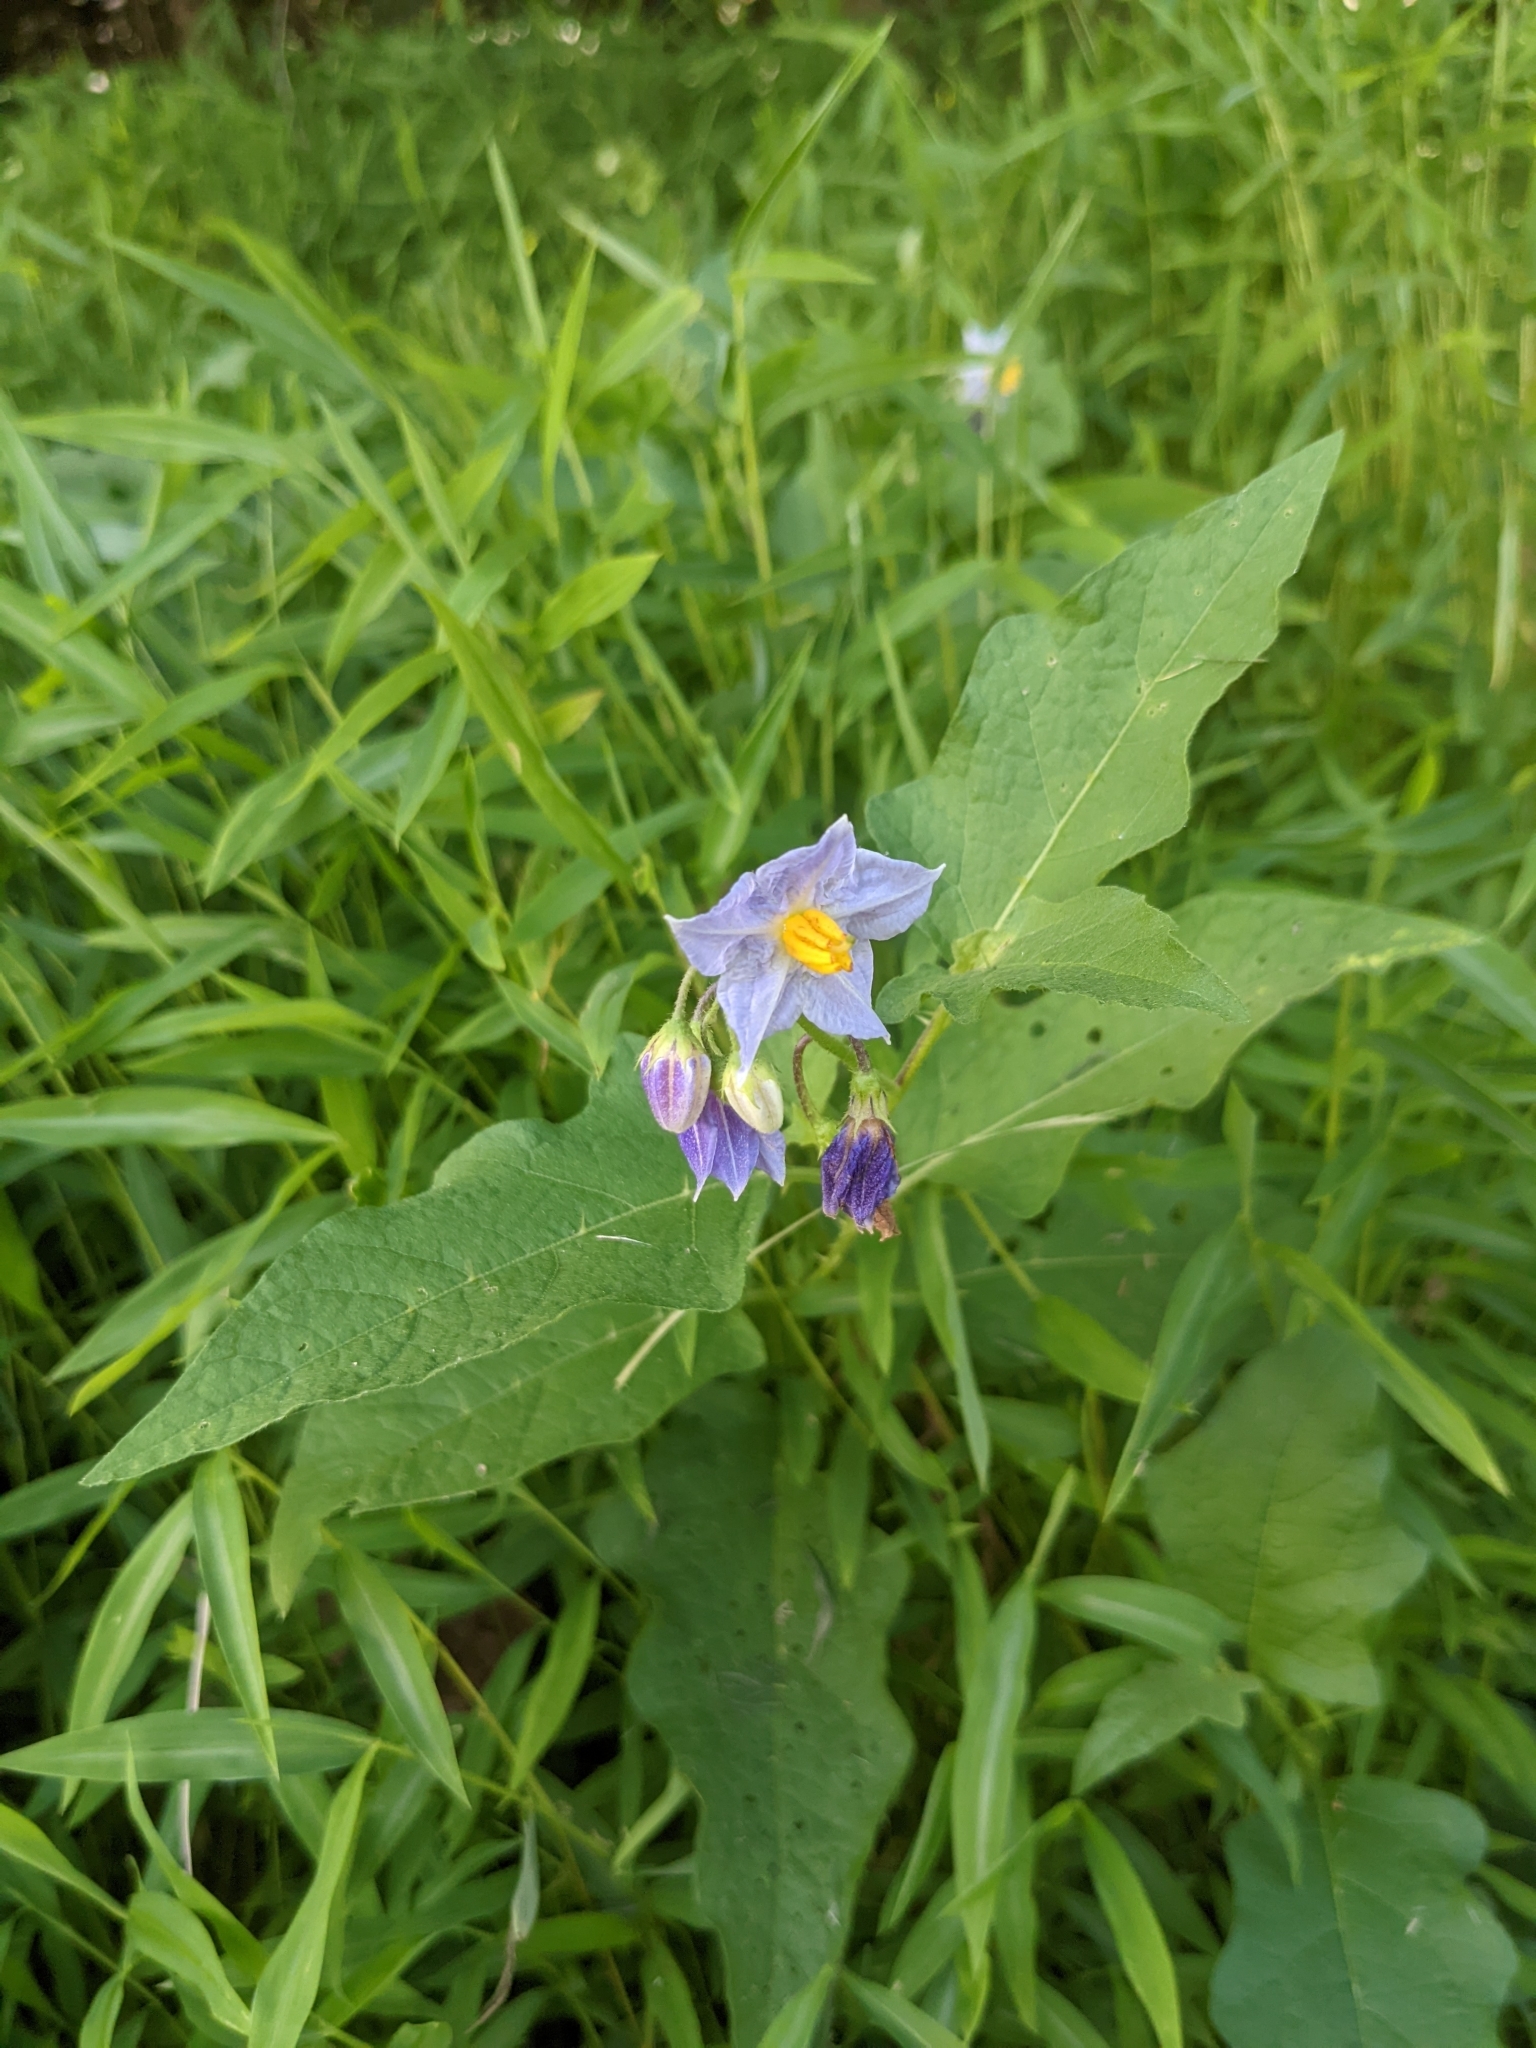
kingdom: Plantae
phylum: Tracheophyta
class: Magnoliopsida
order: Solanales
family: Solanaceae
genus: Solanum
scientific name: Solanum carolinense
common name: Horse-nettle
